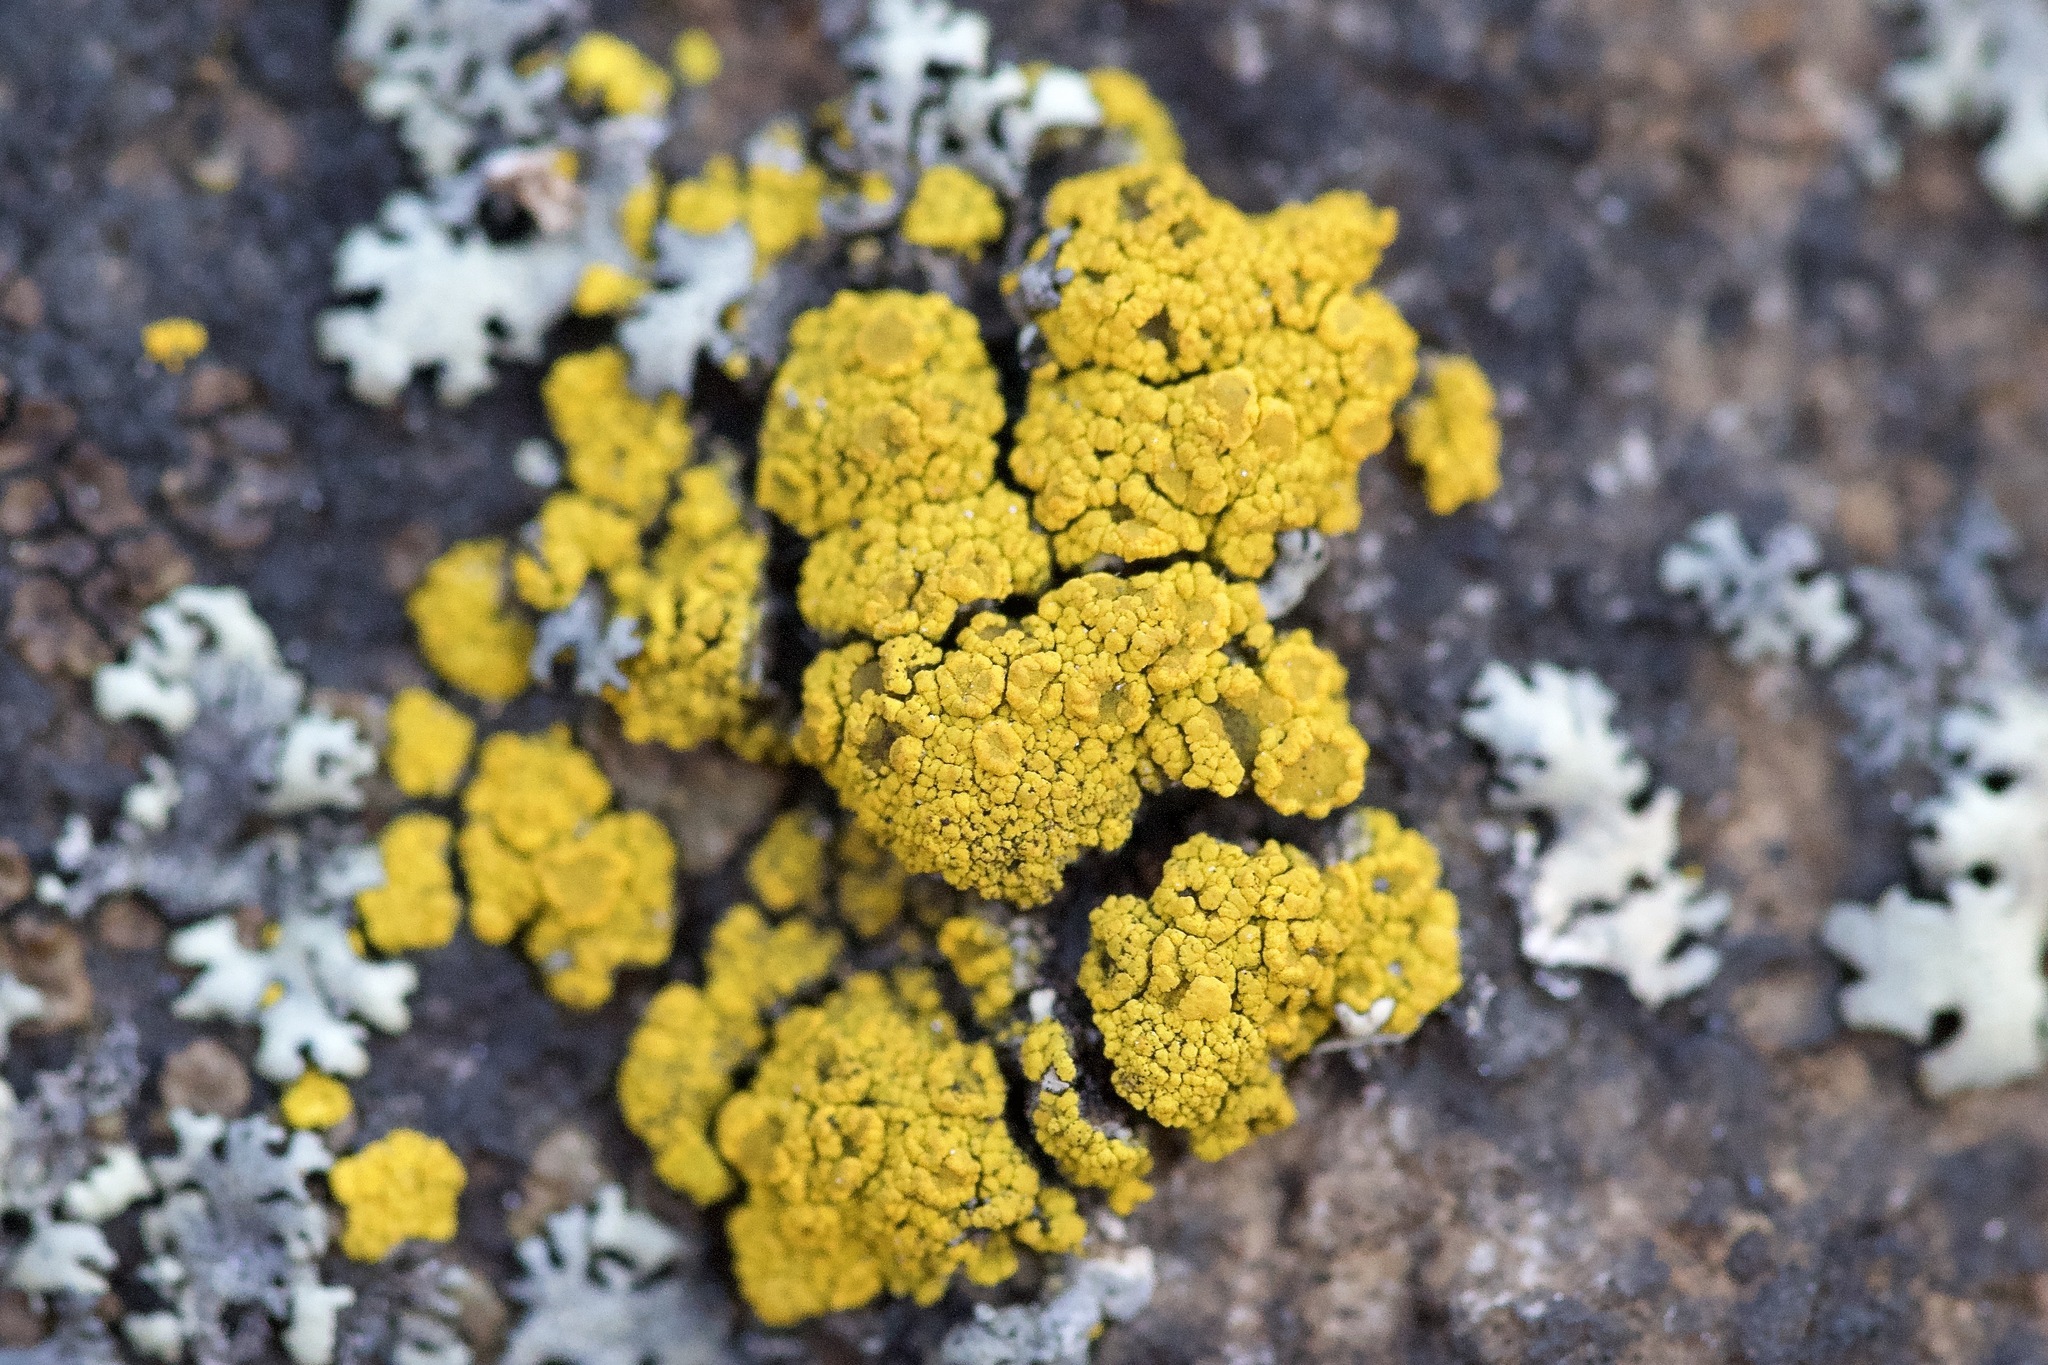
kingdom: Fungi
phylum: Ascomycota
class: Candelariomycetes
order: Candelariales
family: Candelariaceae
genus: Candelariella
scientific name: Candelariella vitellina
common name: Common goldspeck
